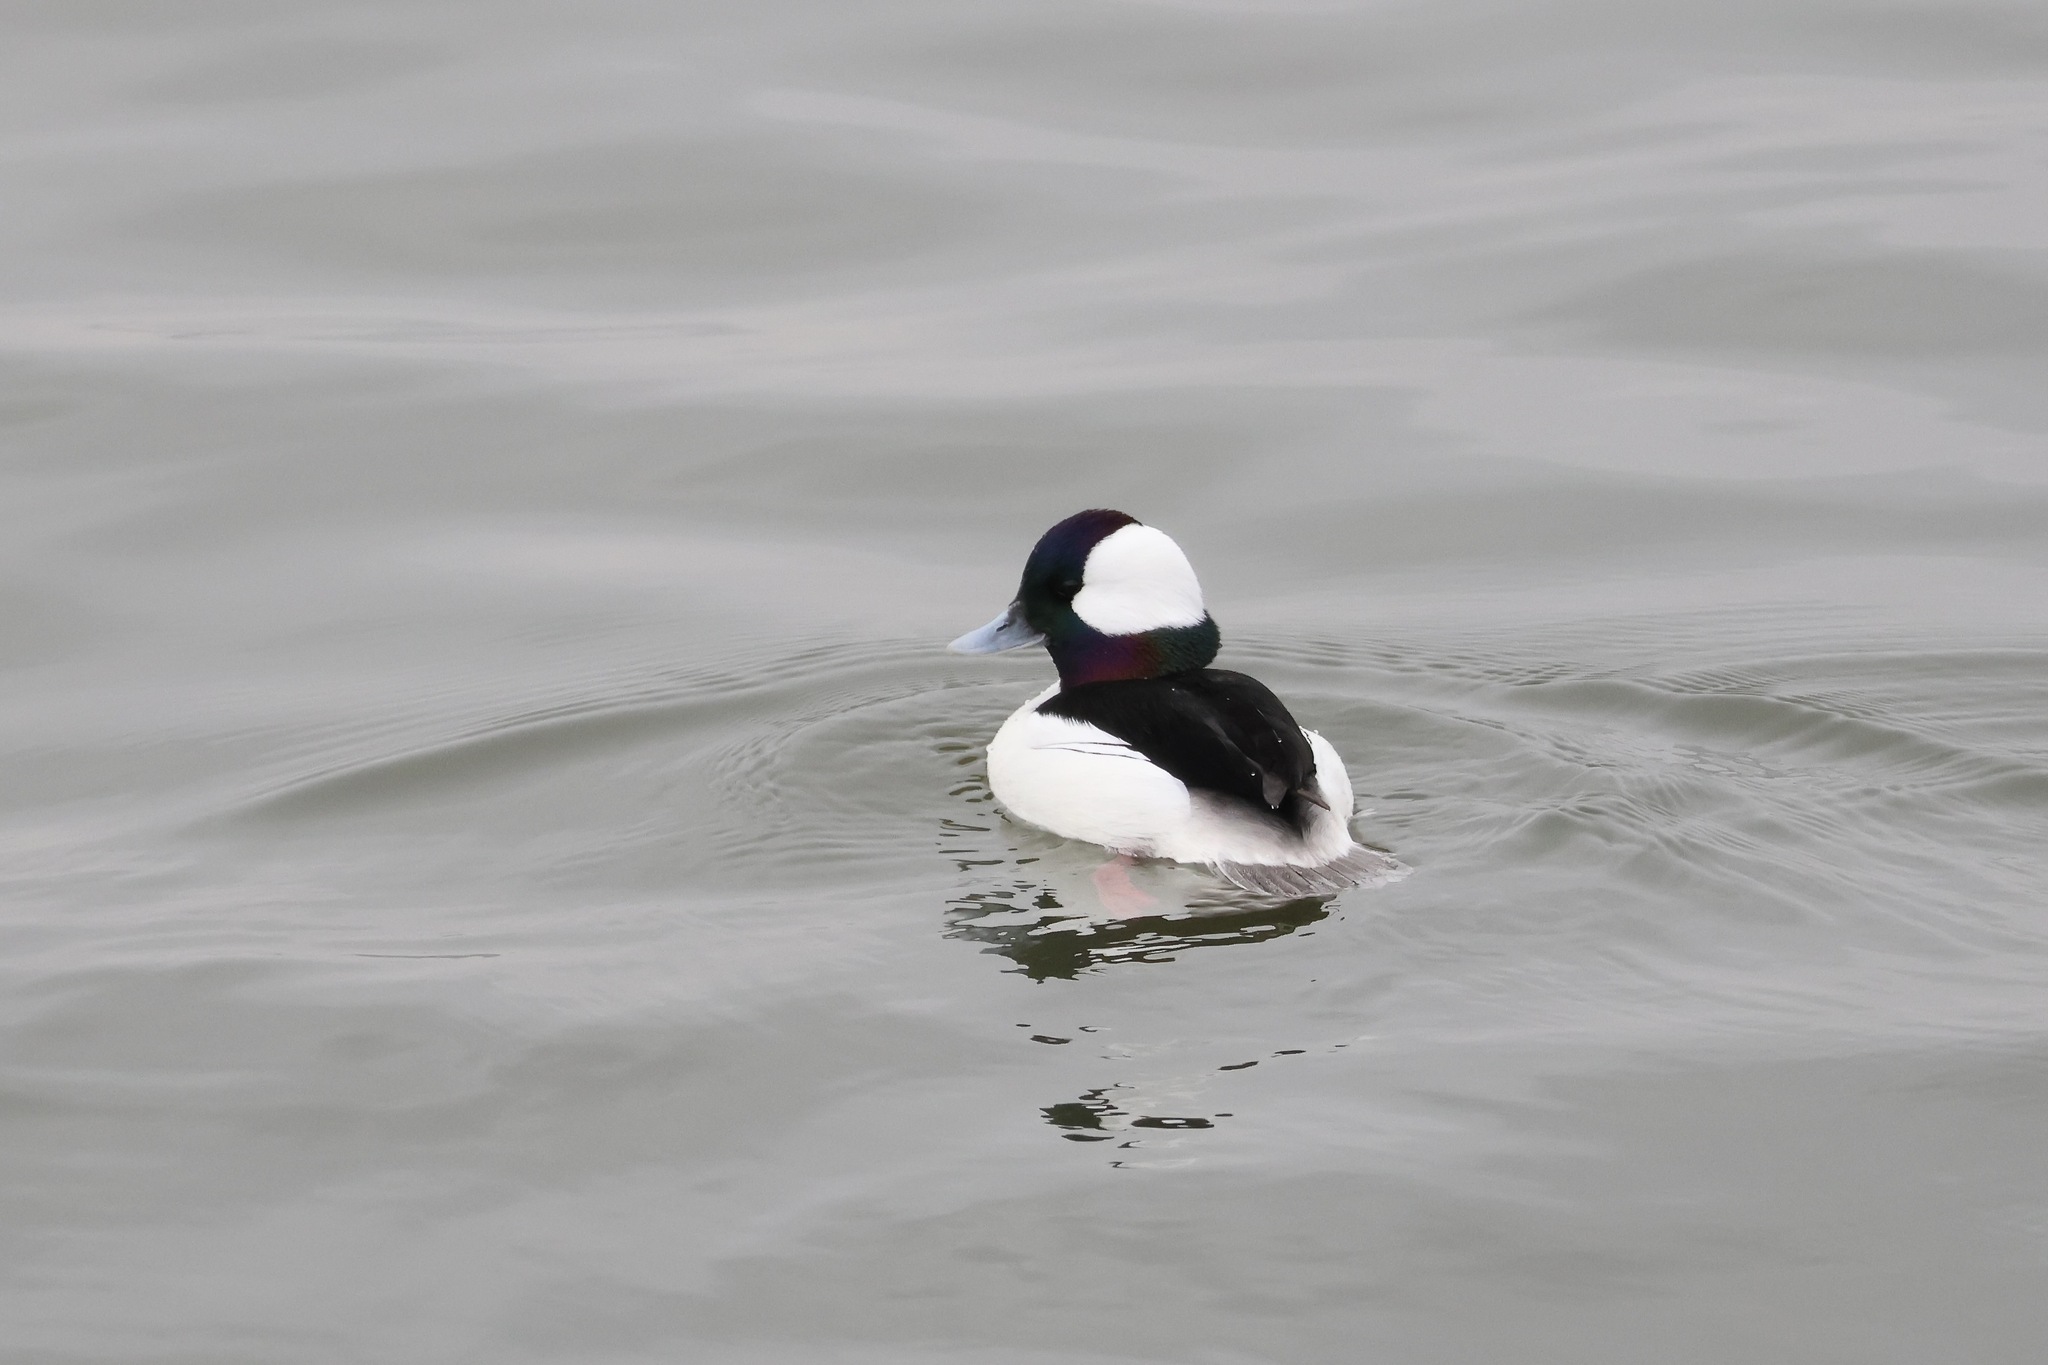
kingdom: Animalia
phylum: Chordata
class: Aves
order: Anseriformes
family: Anatidae
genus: Bucephala
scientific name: Bucephala albeola
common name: Bufflehead
